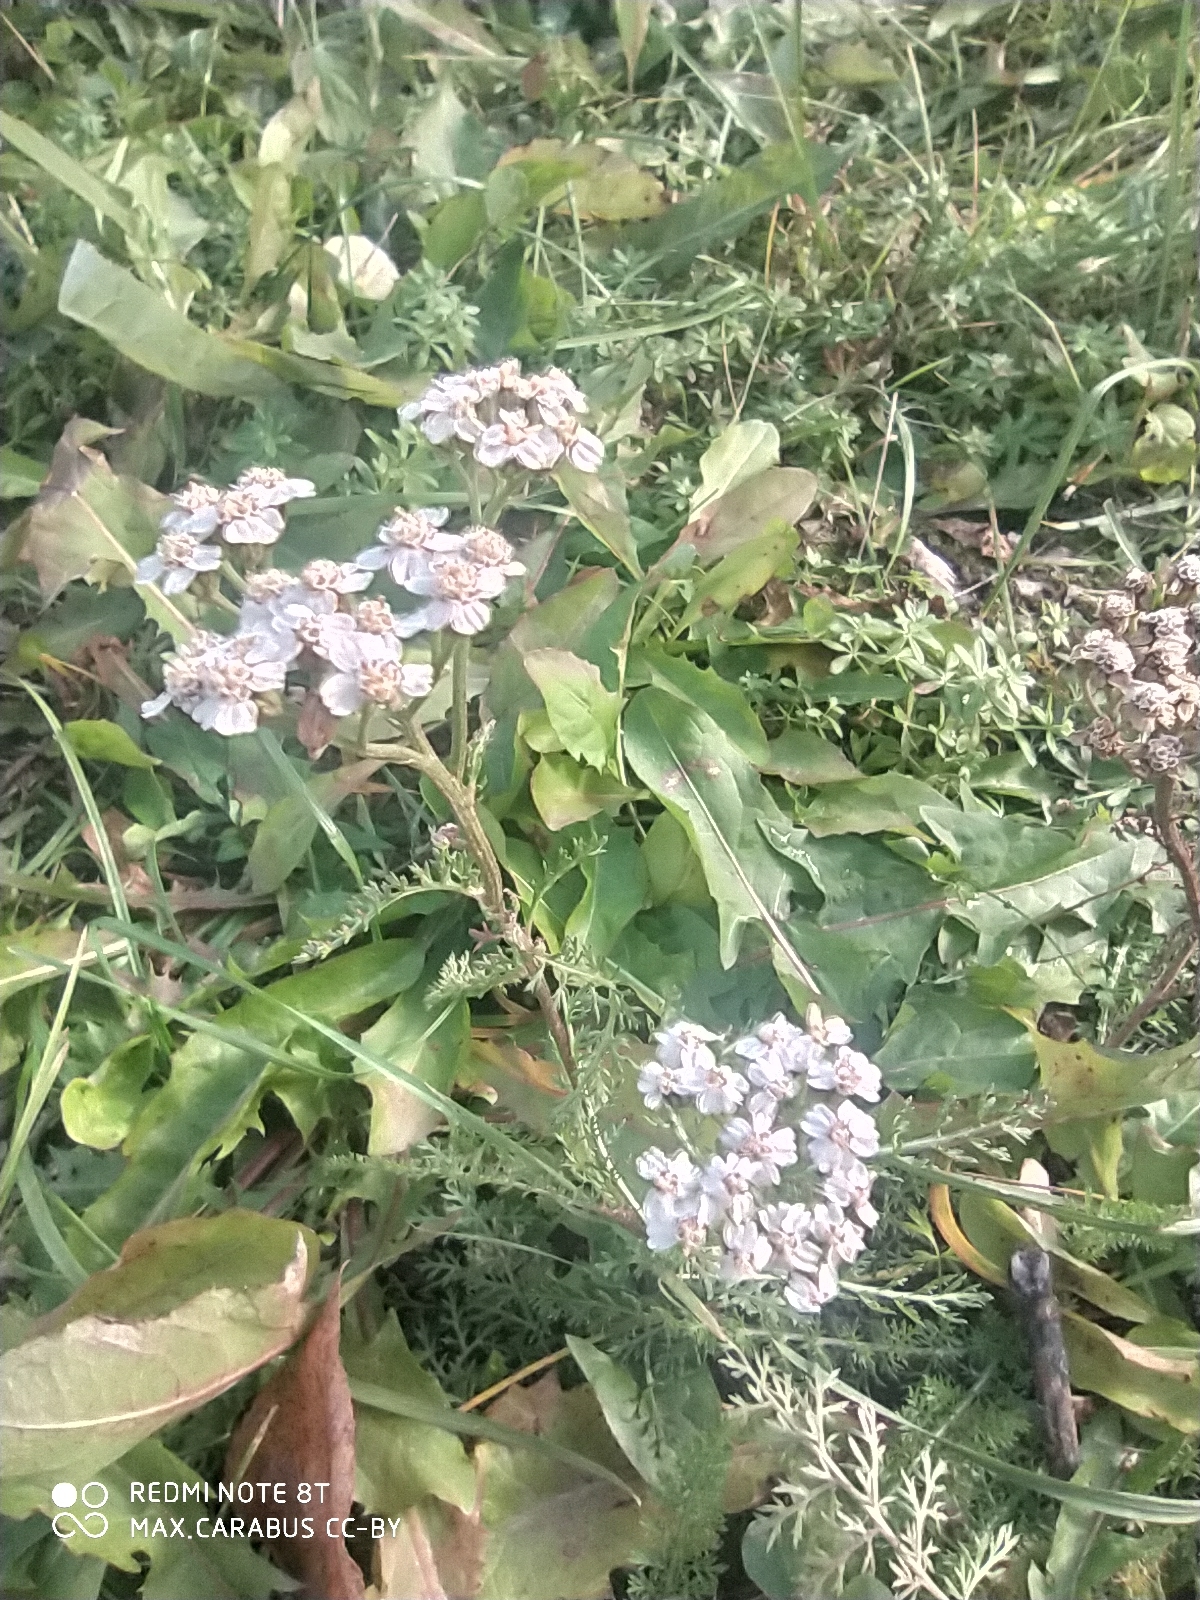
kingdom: Plantae
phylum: Tracheophyta
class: Magnoliopsida
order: Asterales
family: Asteraceae
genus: Achillea
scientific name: Achillea millefolium
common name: Yarrow
